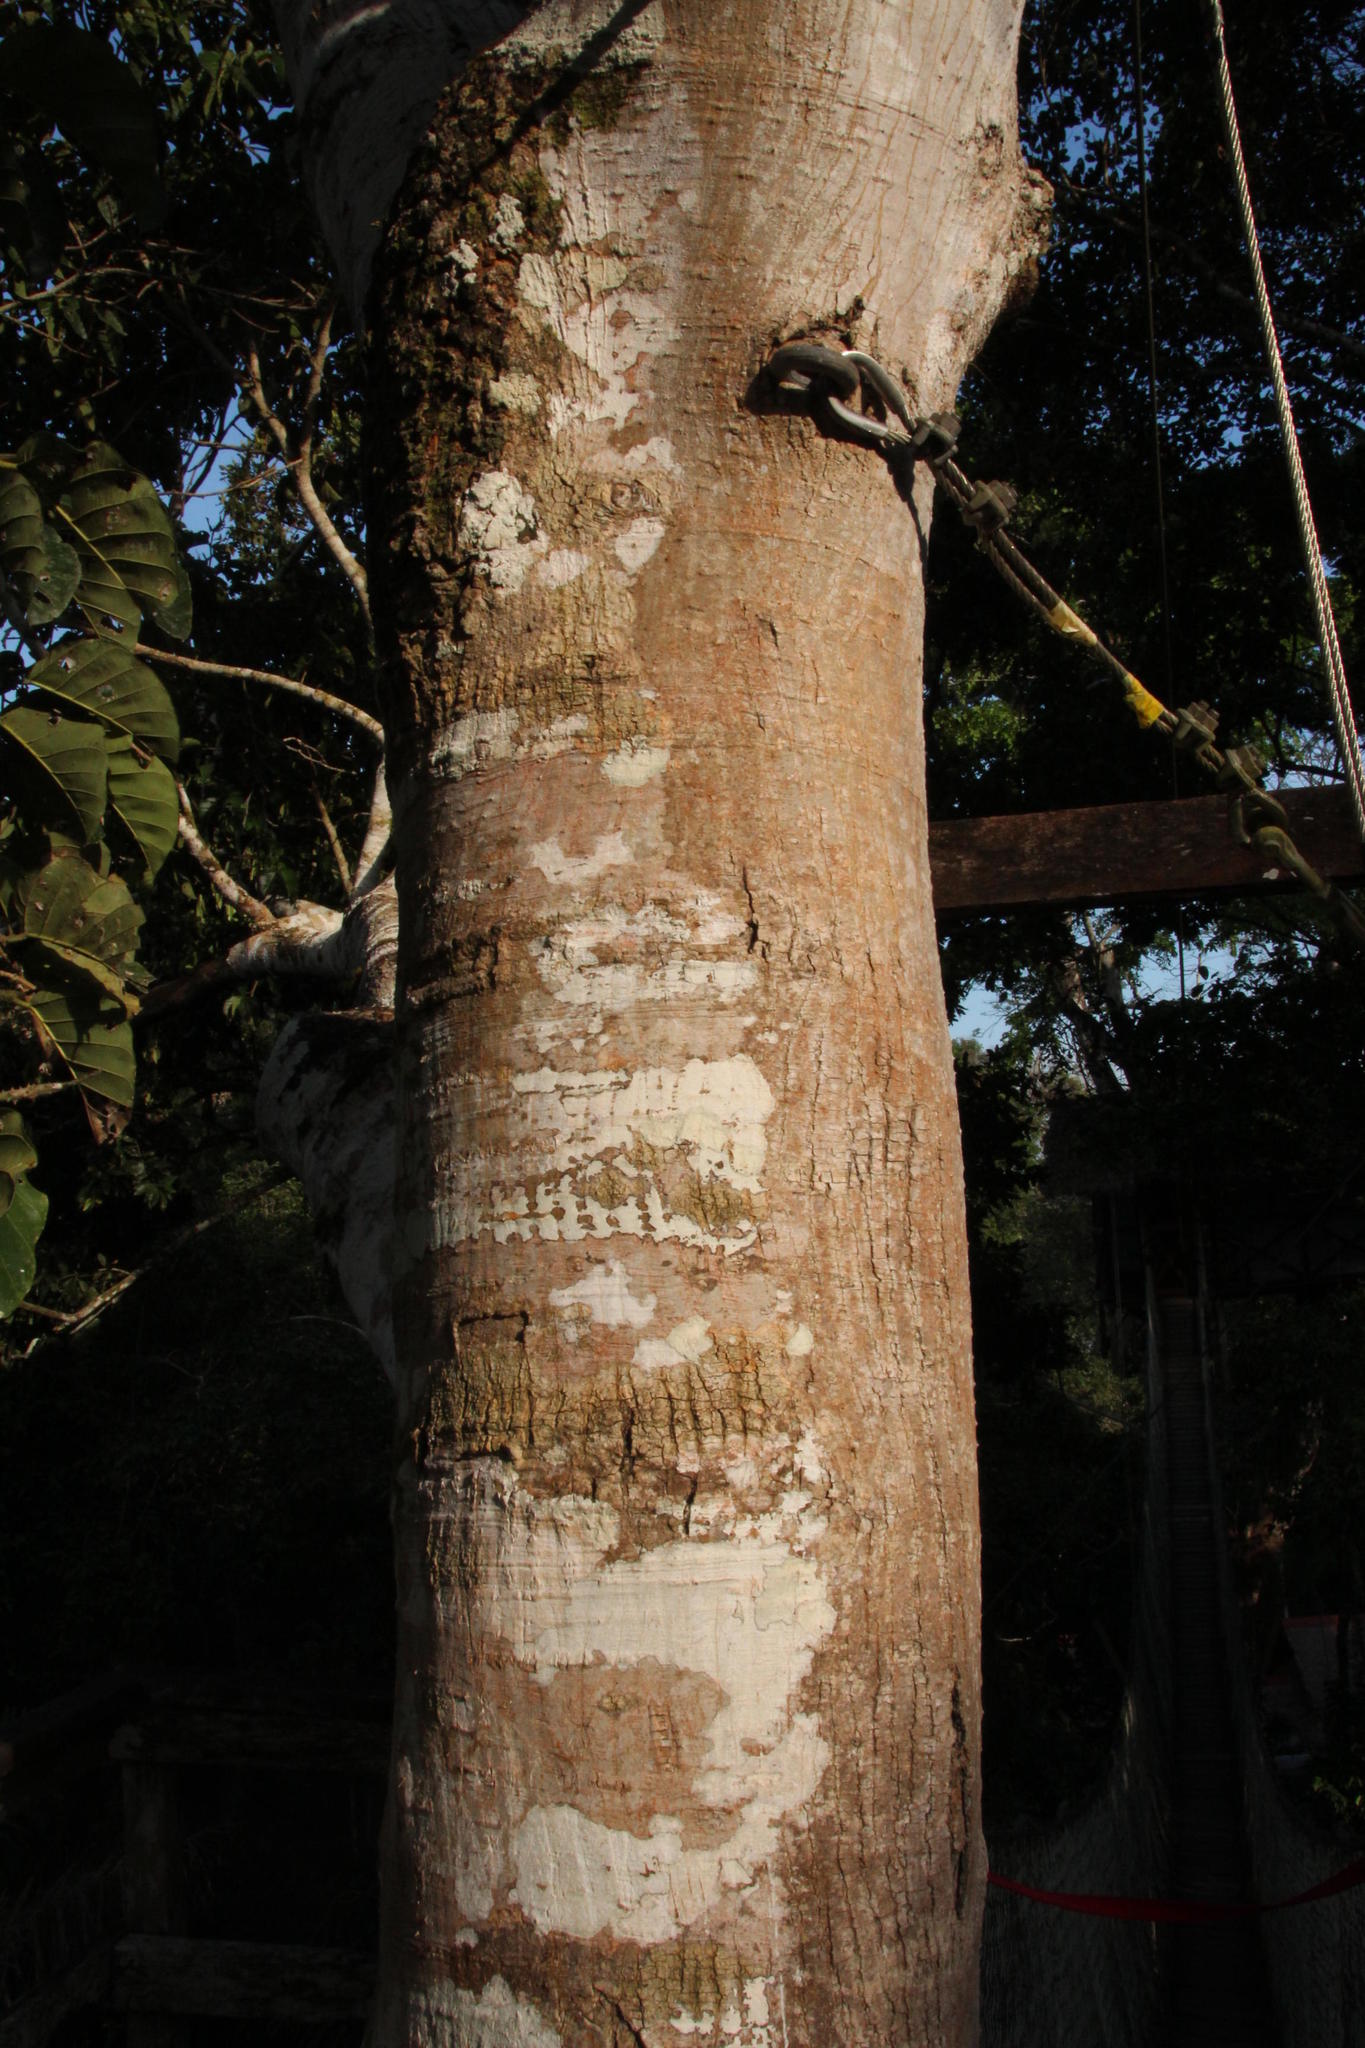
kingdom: Plantae
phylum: Tracheophyta
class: Magnoliopsida
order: Rosales
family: Moraceae
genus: Poulsenia
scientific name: Poulsenia armata
